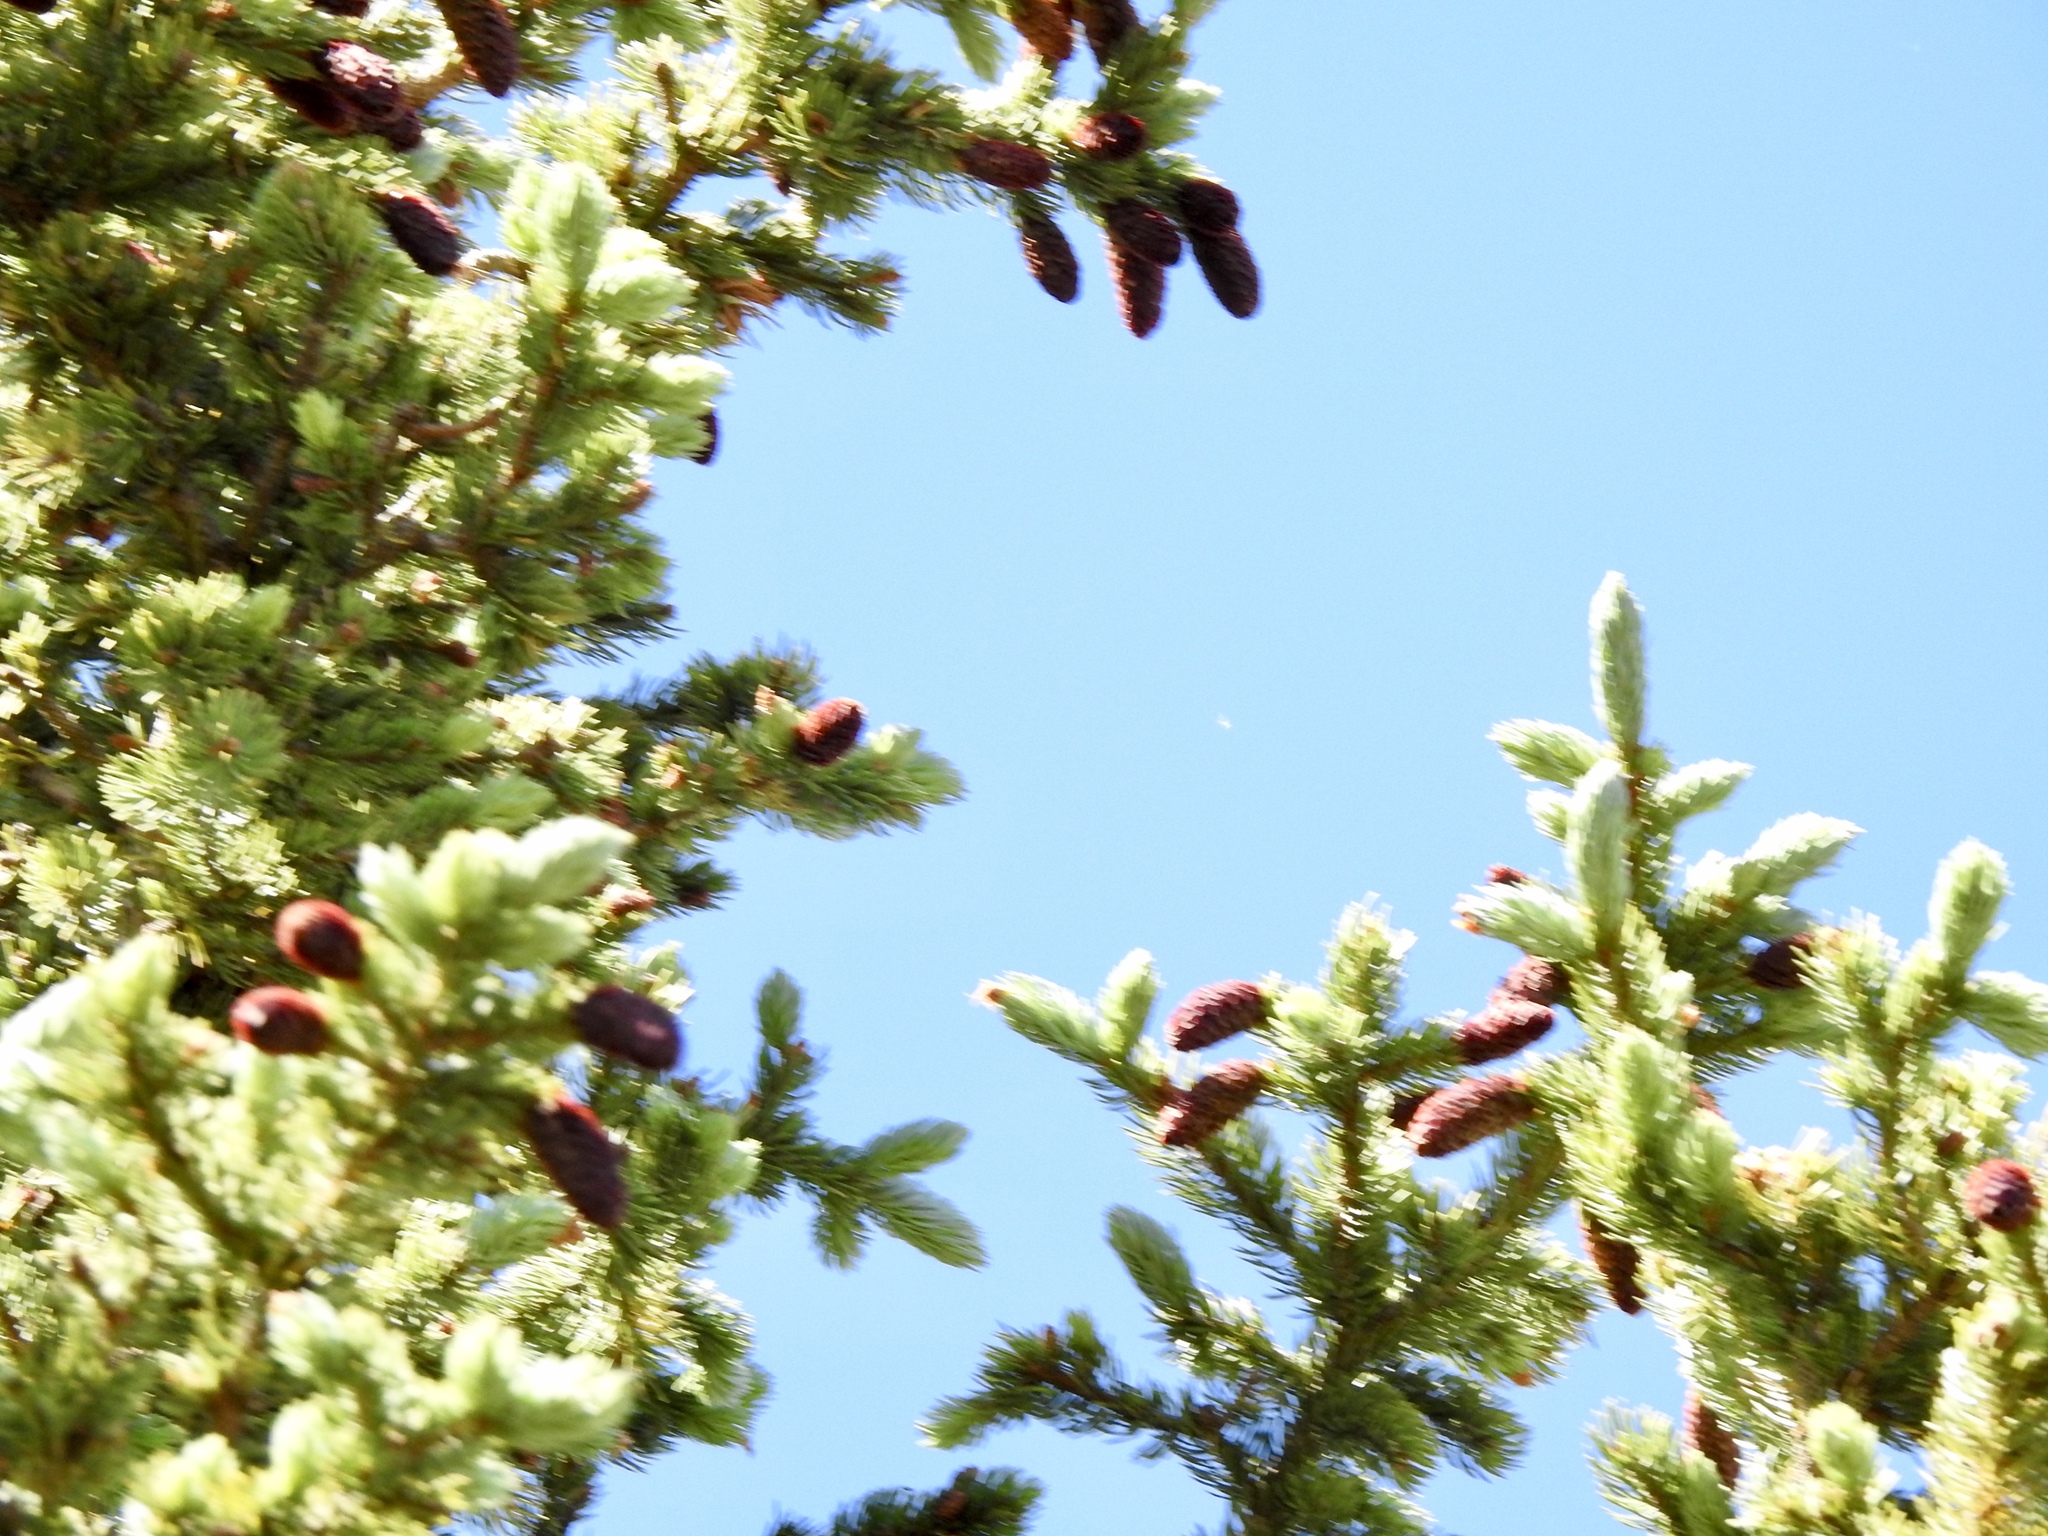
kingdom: Plantae
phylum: Tracheophyta
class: Pinopsida
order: Pinales
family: Pinaceae
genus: Picea
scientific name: Picea engelmannii
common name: Engelmann spruce
